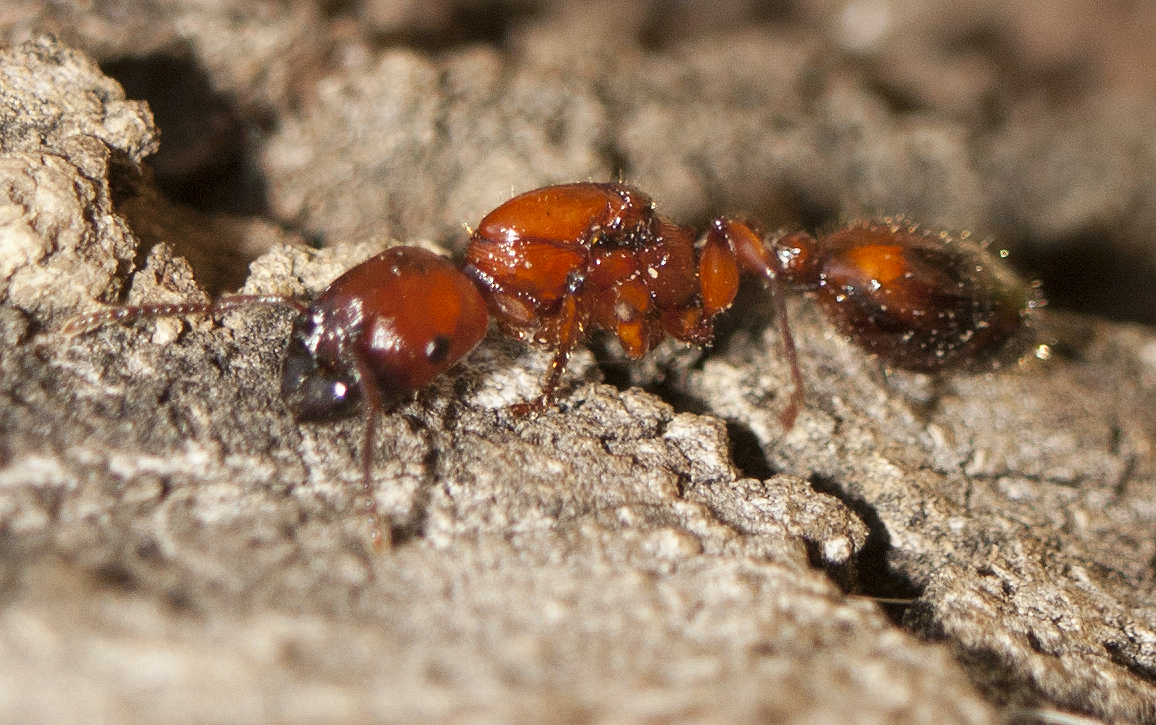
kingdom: Animalia
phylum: Arthropoda
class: Insecta
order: Hymenoptera
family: Formicidae
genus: Podomyrma
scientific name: Podomyrma gratiosa
